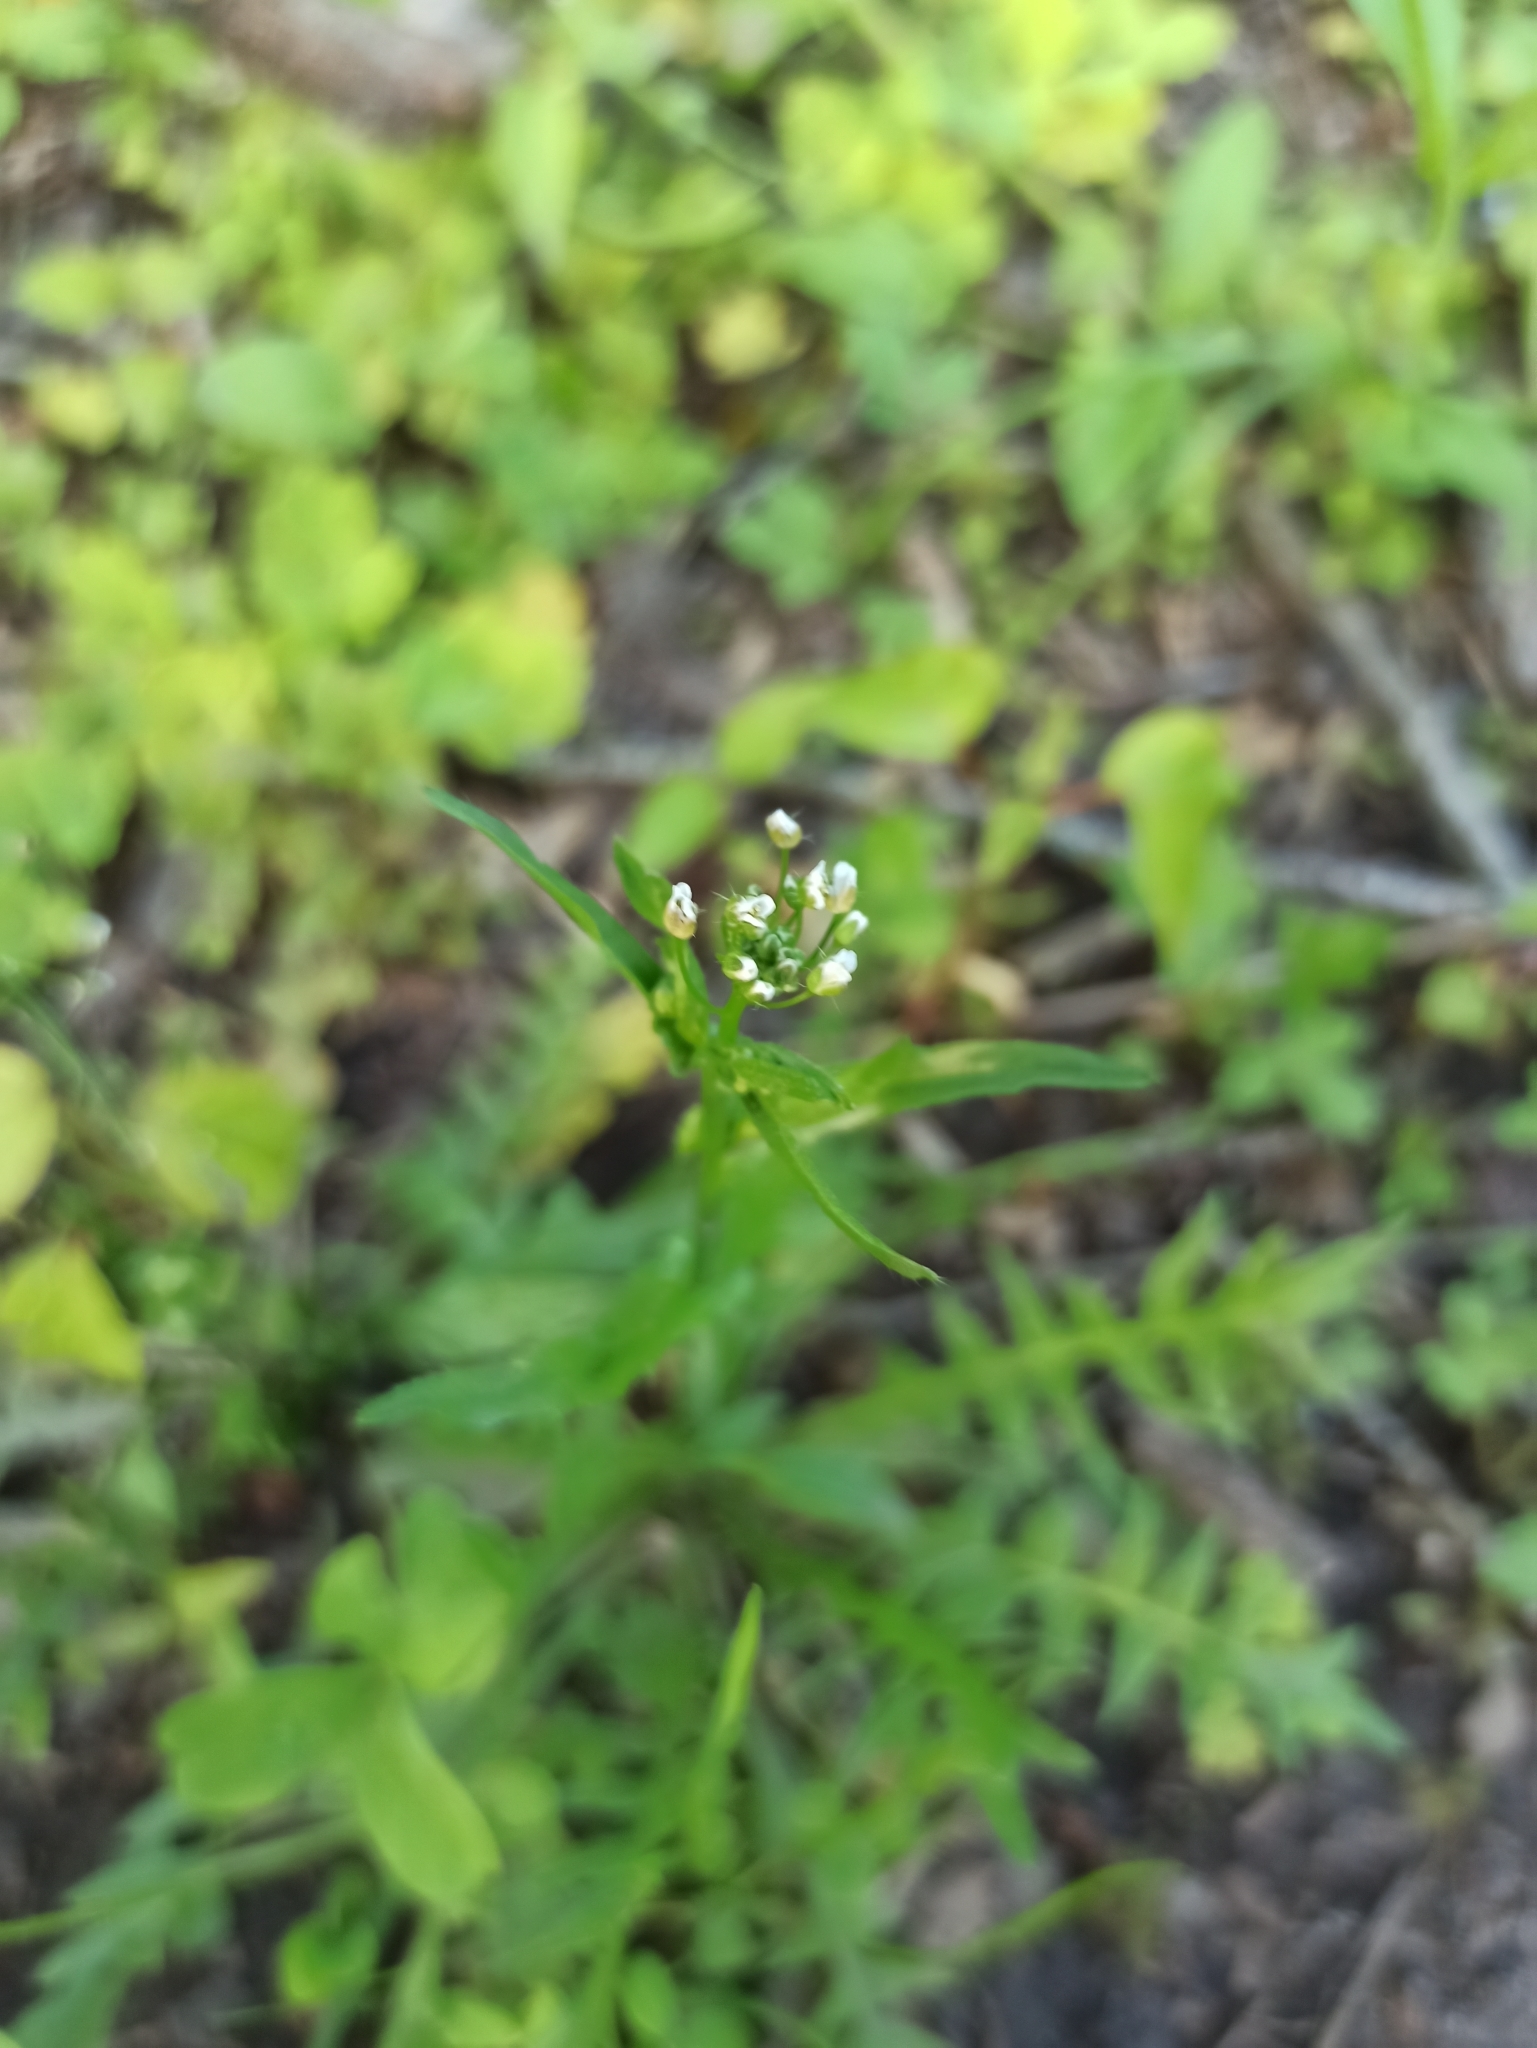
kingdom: Plantae
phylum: Tracheophyta
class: Magnoliopsida
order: Brassicales
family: Brassicaceae
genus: Capsella
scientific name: Capsella bursa-pastoris
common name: Shepherd's purse
